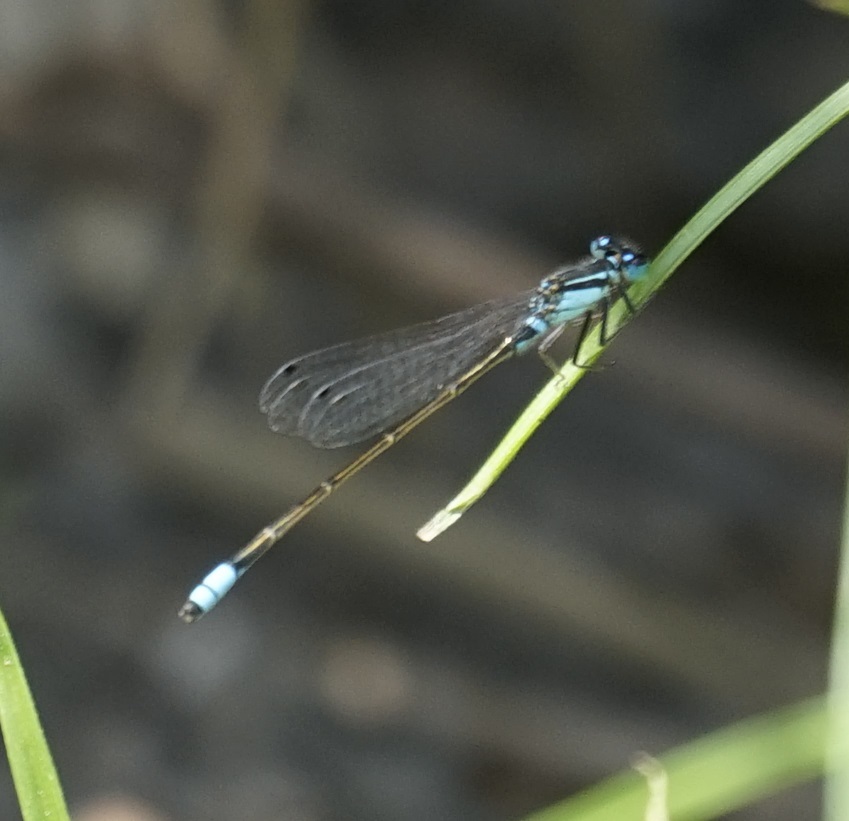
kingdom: Animalia
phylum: Arthropoda
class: Insecta
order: Odonata
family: Coenagrionidae
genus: Ischnura
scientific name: Ischnura heterosticta
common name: Common bluetail
